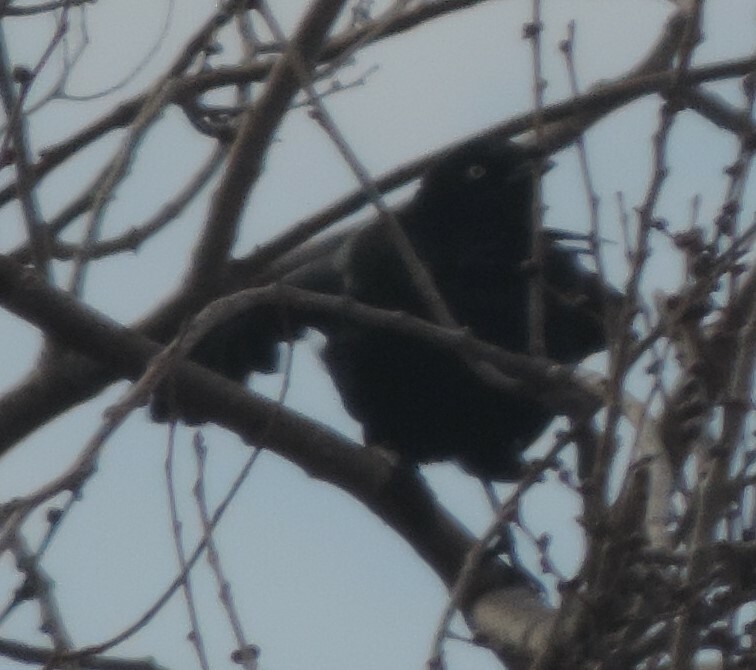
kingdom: Animalia
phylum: Chordata
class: Aves
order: Passeriformes
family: Icteridae
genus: Euphagus
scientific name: Euphagus cyanocephalus
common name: Brewer's blackbird
